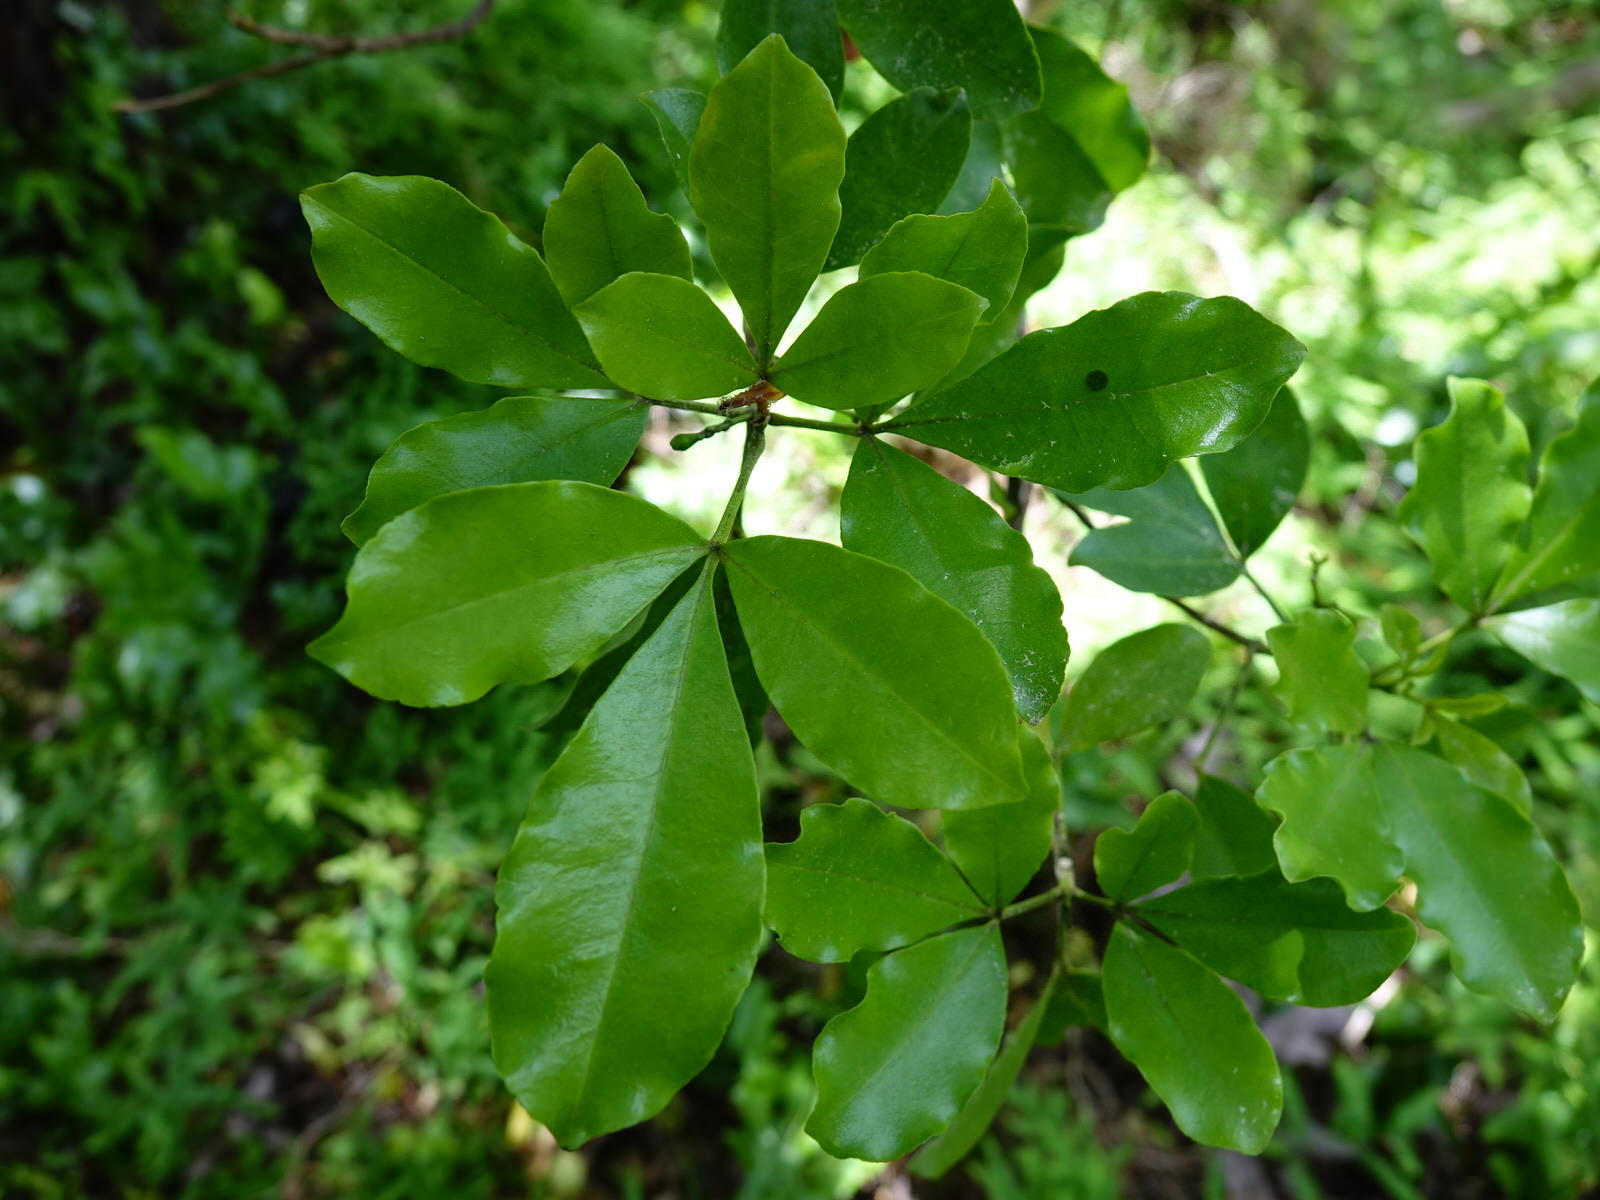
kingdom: Plantae
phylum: Tracheophyta
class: Magnoliopsida
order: Sapindales
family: Rutaceae
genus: Melicope
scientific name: Melicope ternata
